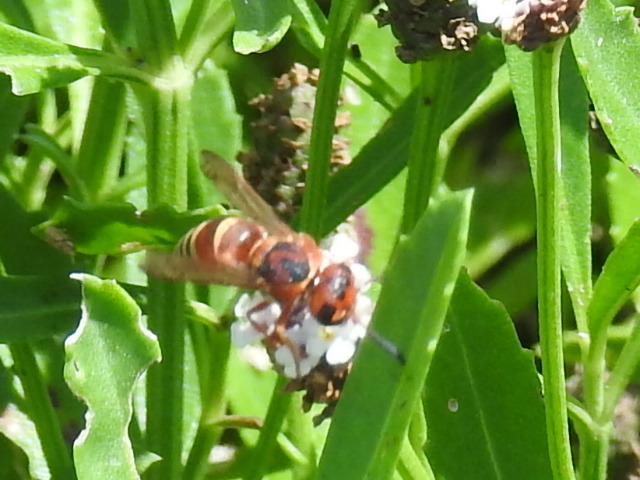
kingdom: Animalia
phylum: Arthropoda
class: Insecta
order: Hymenoptera
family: Eumenidae
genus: Euodynerus
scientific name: Euodynerus annulatus
